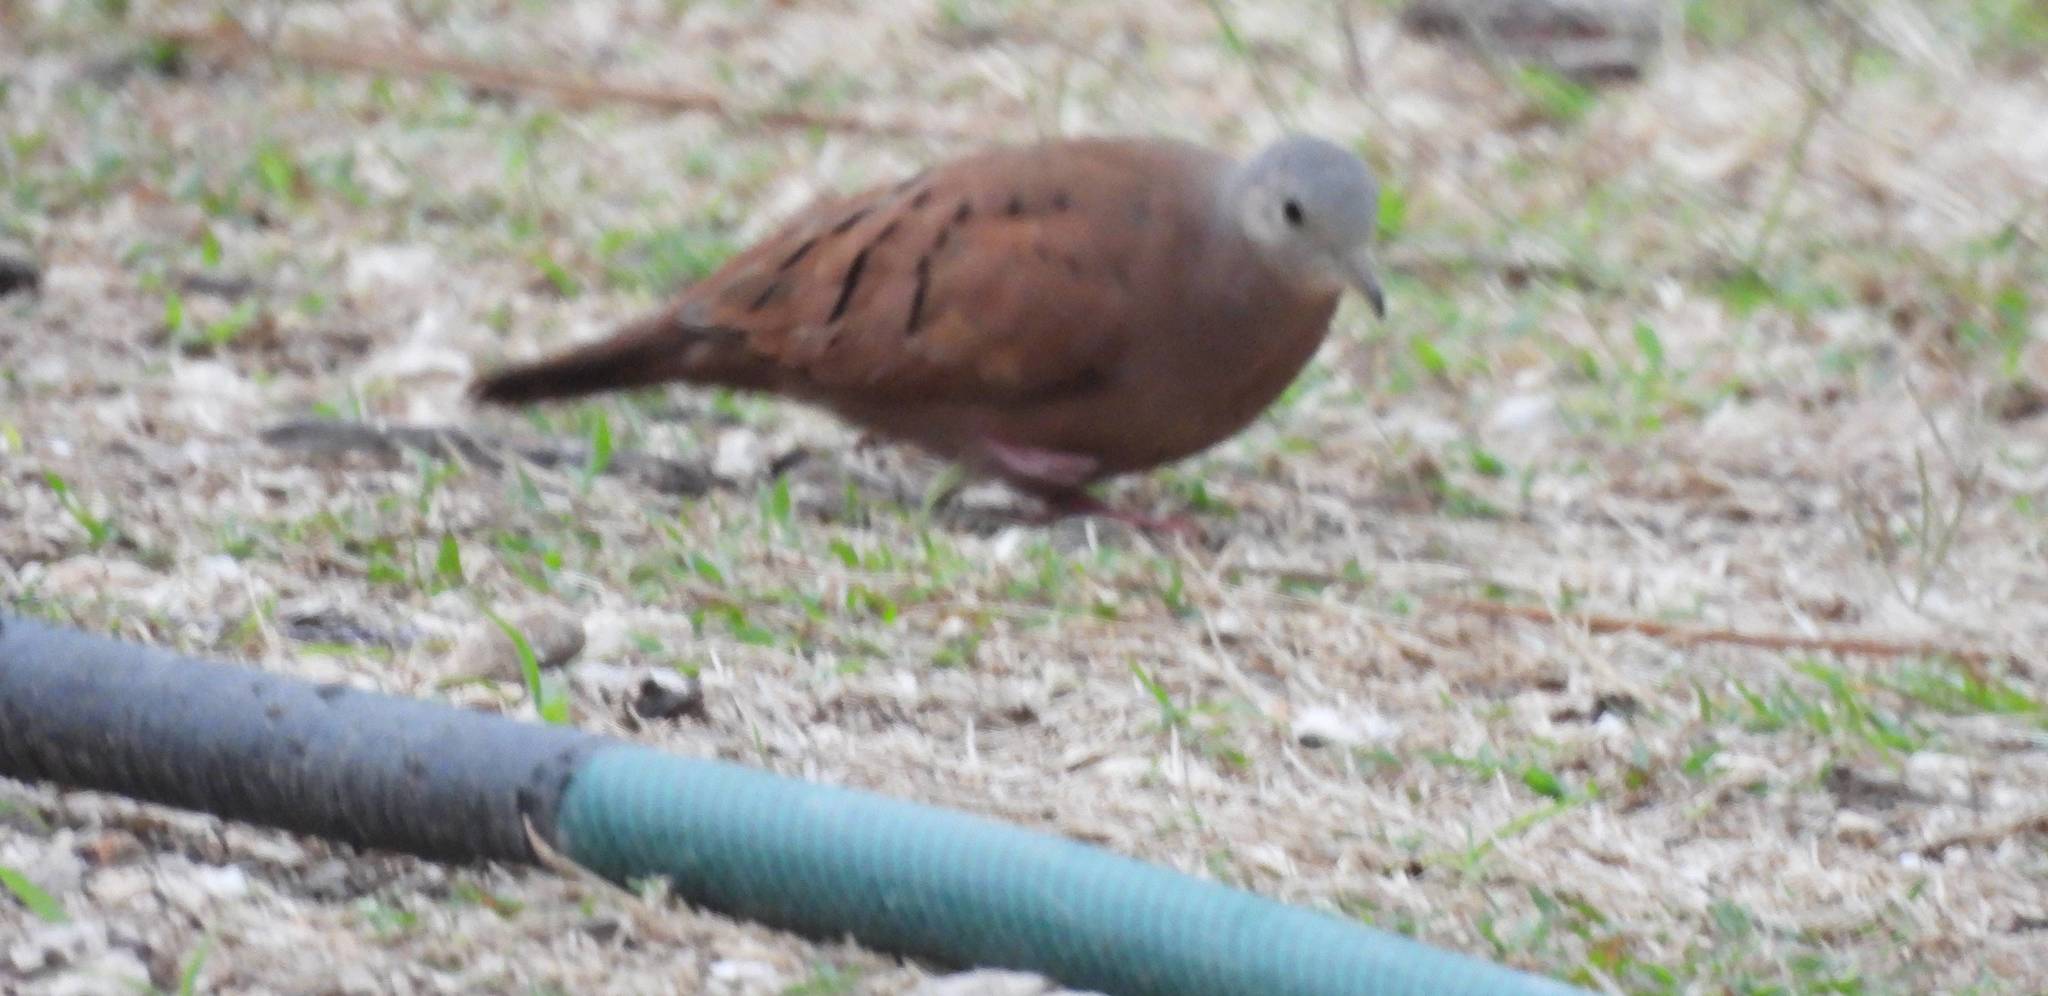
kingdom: Animalia
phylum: Chordata
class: Aves
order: Columbiformes
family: Columbidae
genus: Columbina
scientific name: Columbina talpacoti
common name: Ruddy ground dove
